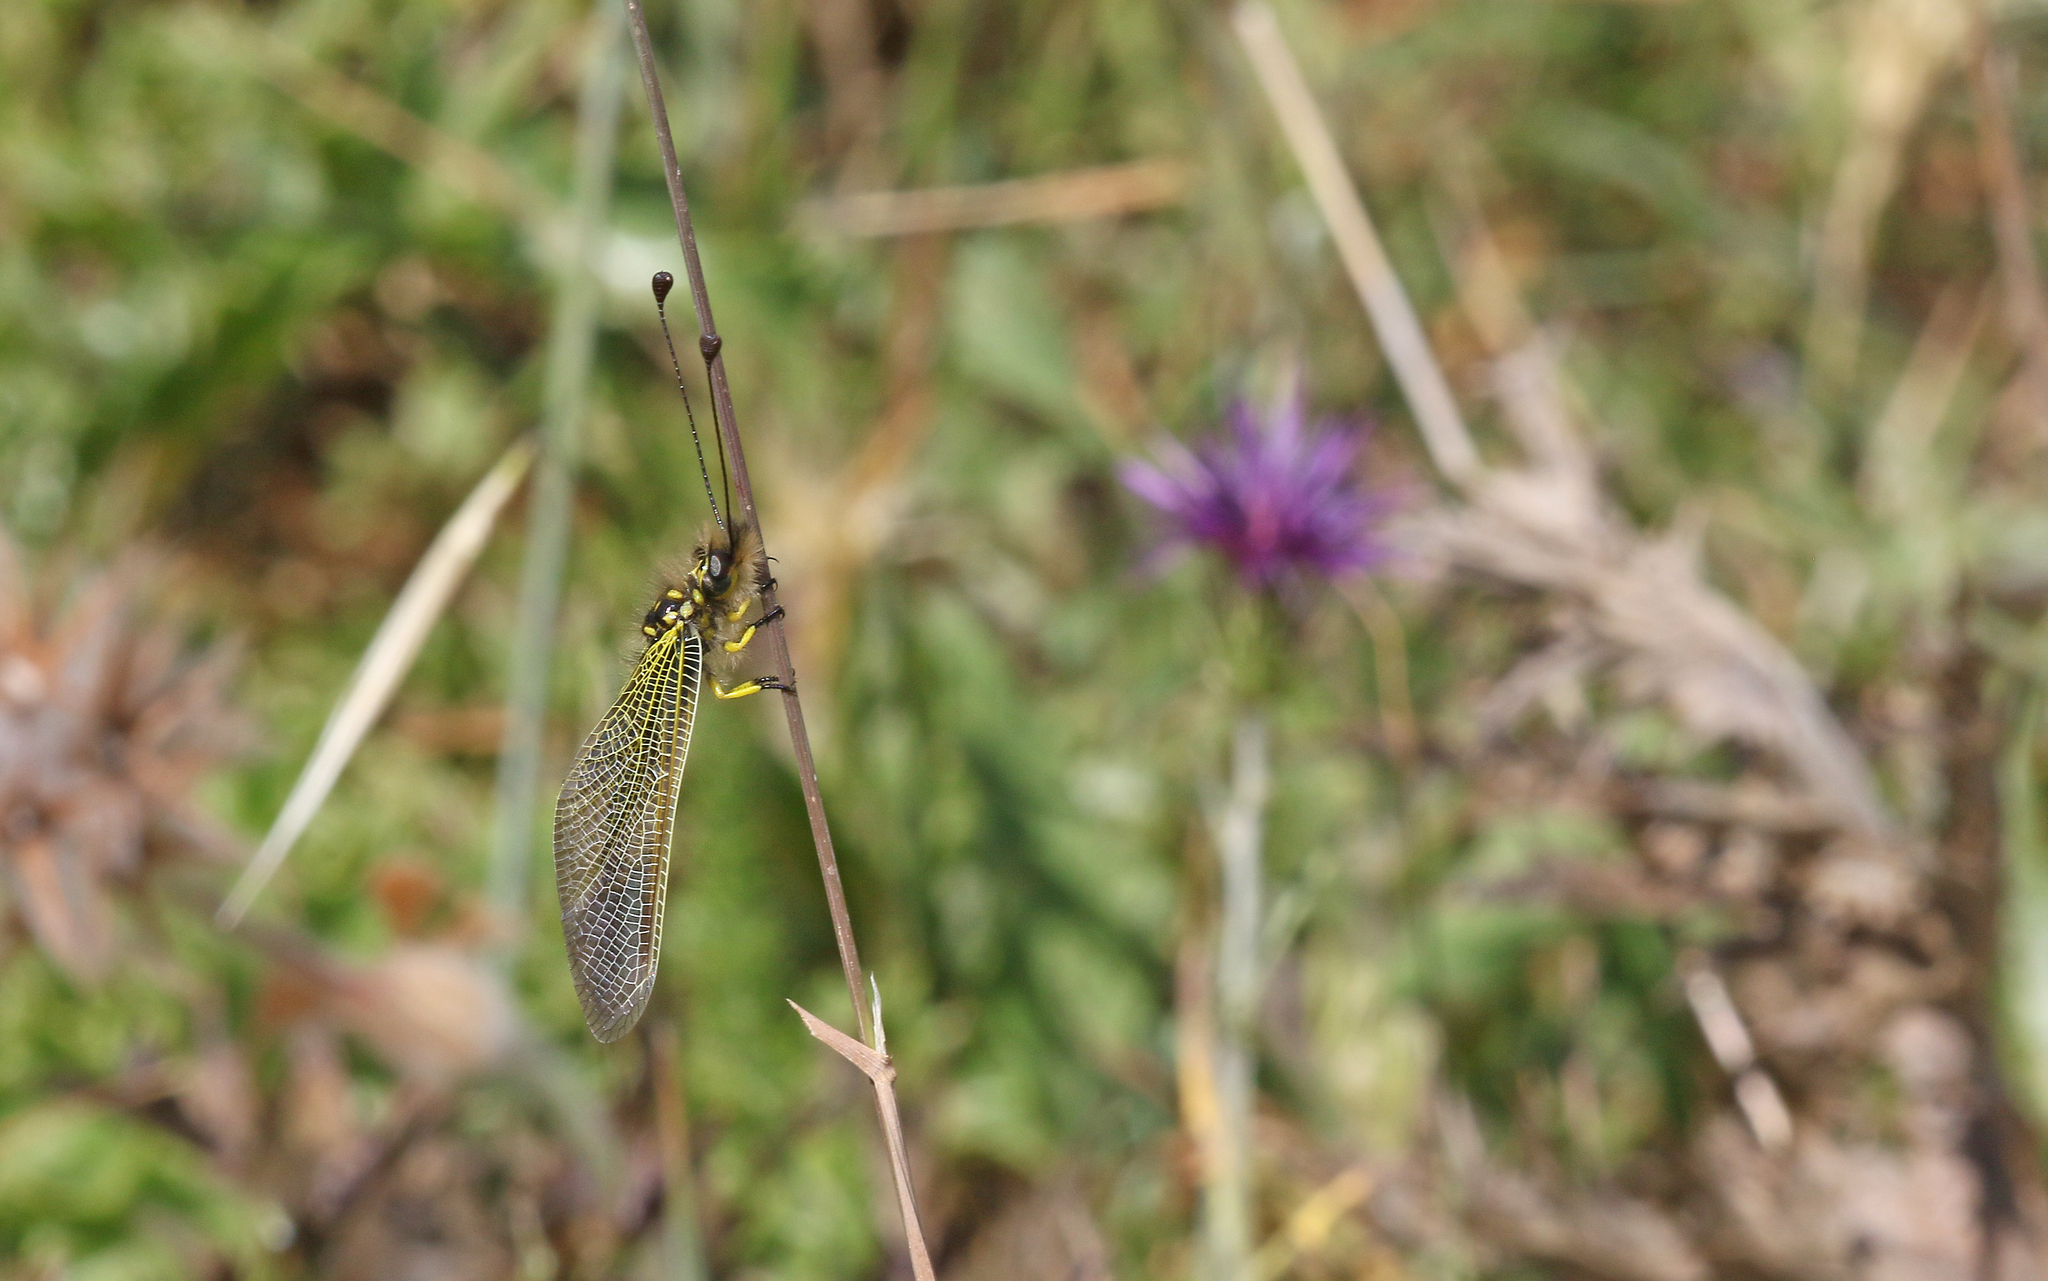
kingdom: Animalia
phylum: Arthropoda
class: Insecta
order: Neuroptera
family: Ascalaphidae
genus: Libelloides
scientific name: Libelloides ictericus
